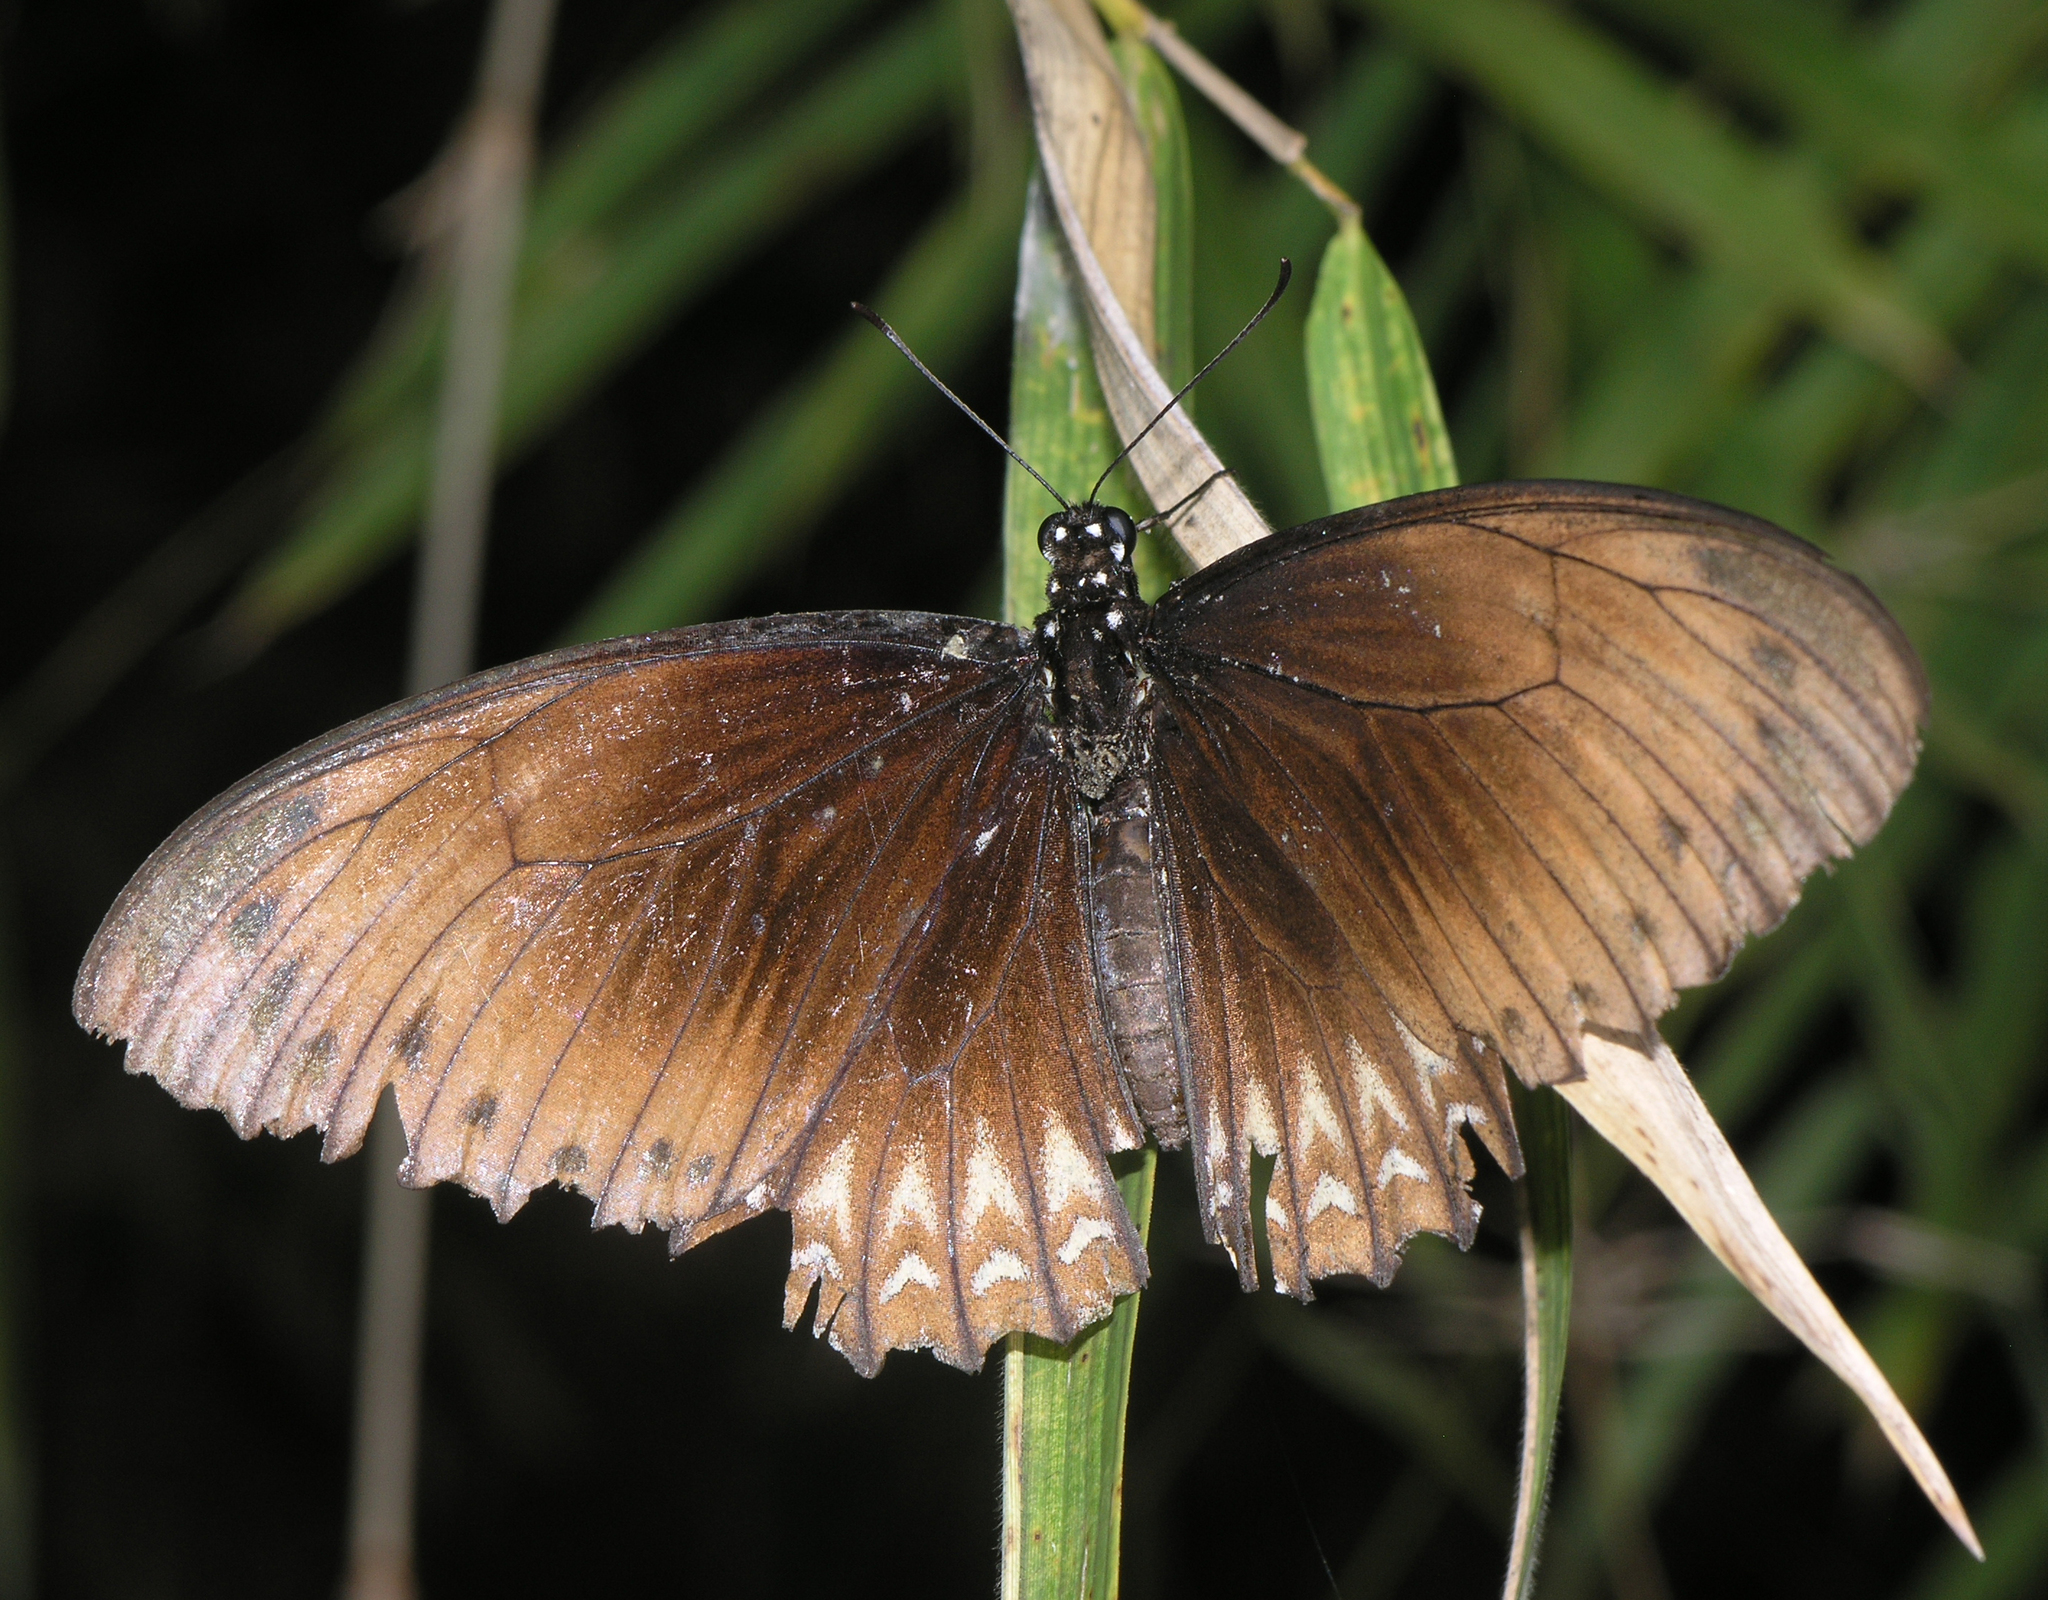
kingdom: Animalia
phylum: Arthropoda
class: Insecta
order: Lepidoptera
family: Papilionidae
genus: Chilasa
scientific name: Chilasa clytia
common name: Common mime
